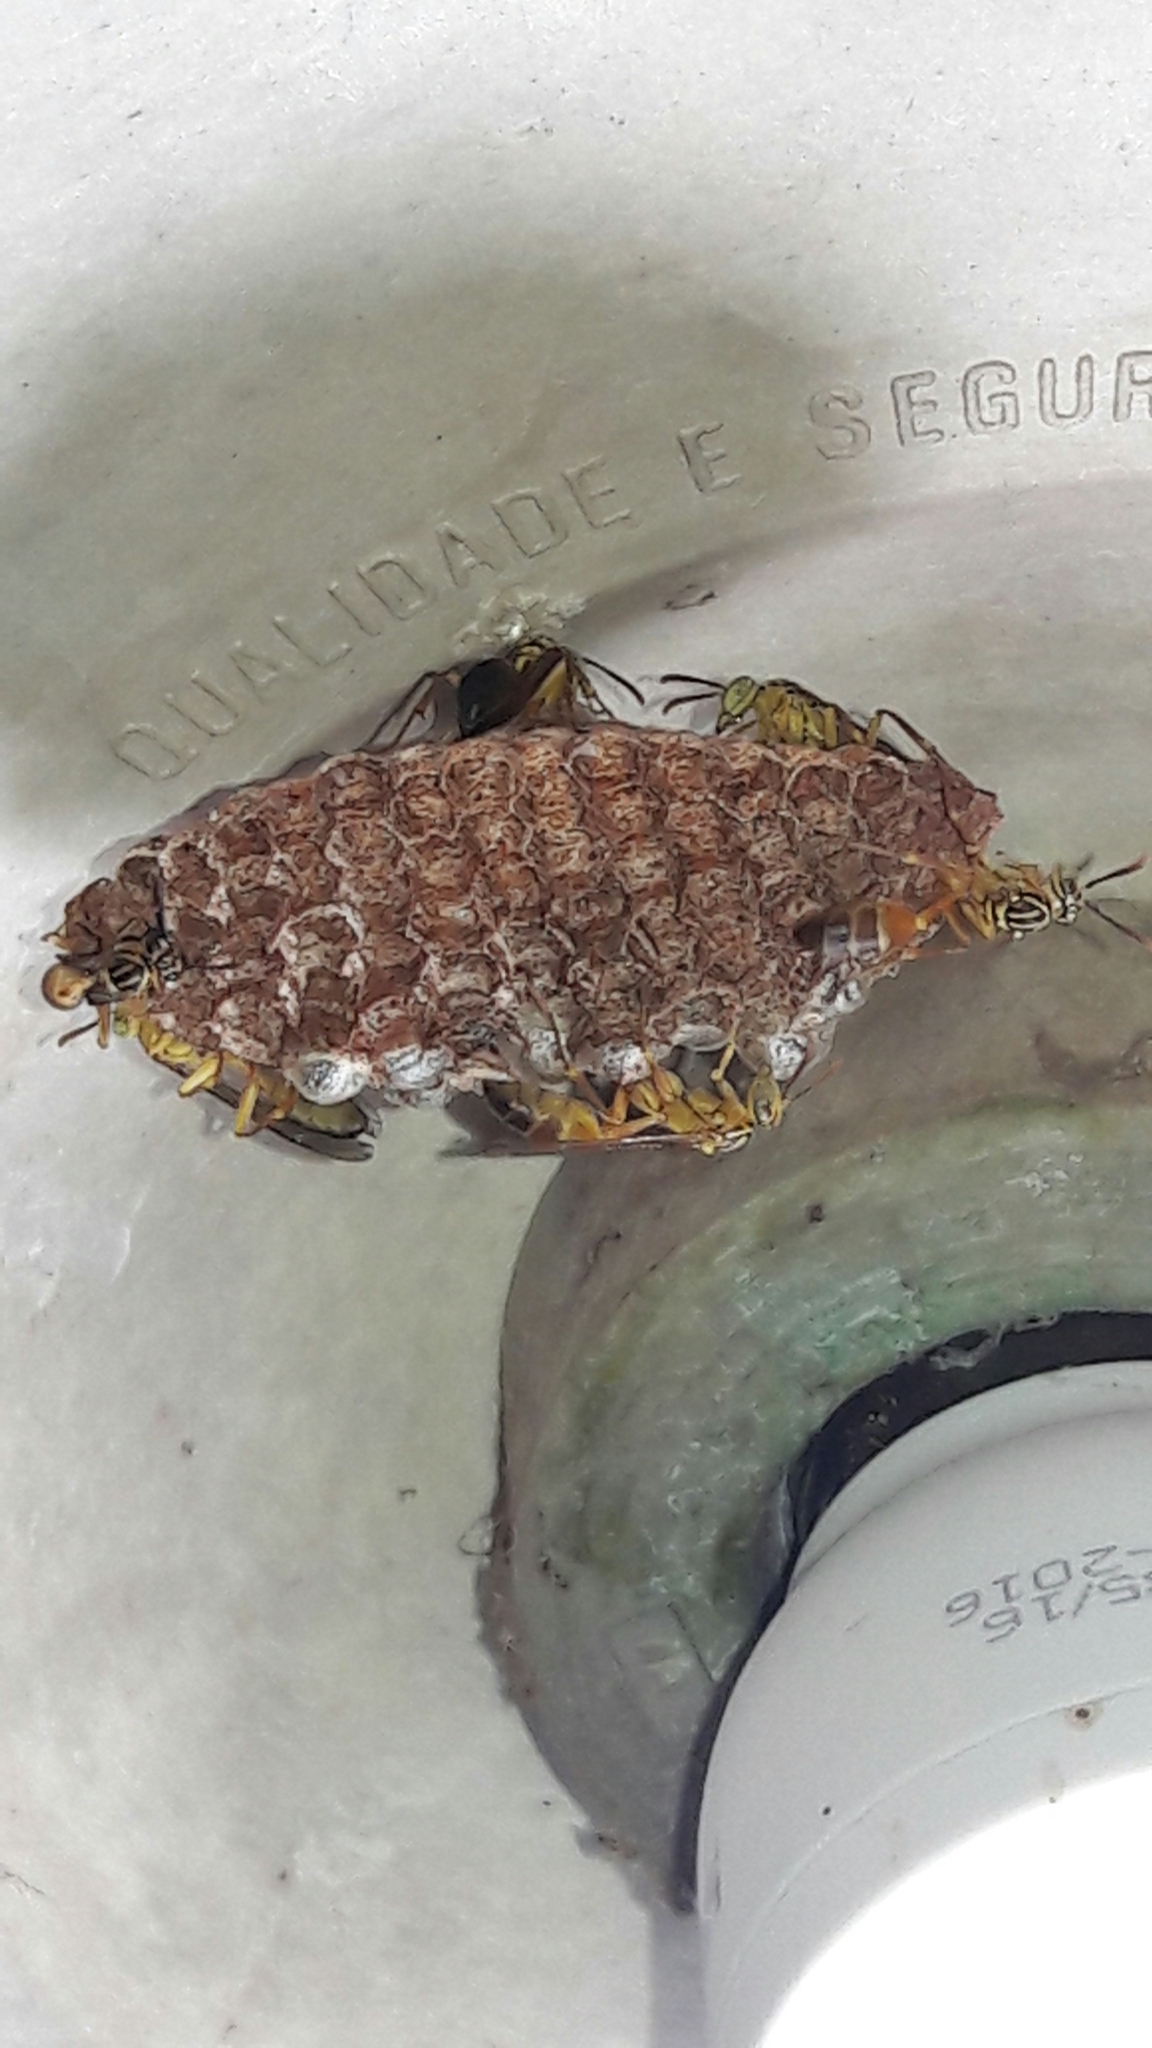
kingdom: Animalia
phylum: Arthropoda
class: Insecta
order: Hymenoptera
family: Vespidae
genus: Mischocyttarus
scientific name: Mischocyttarus cerberus
